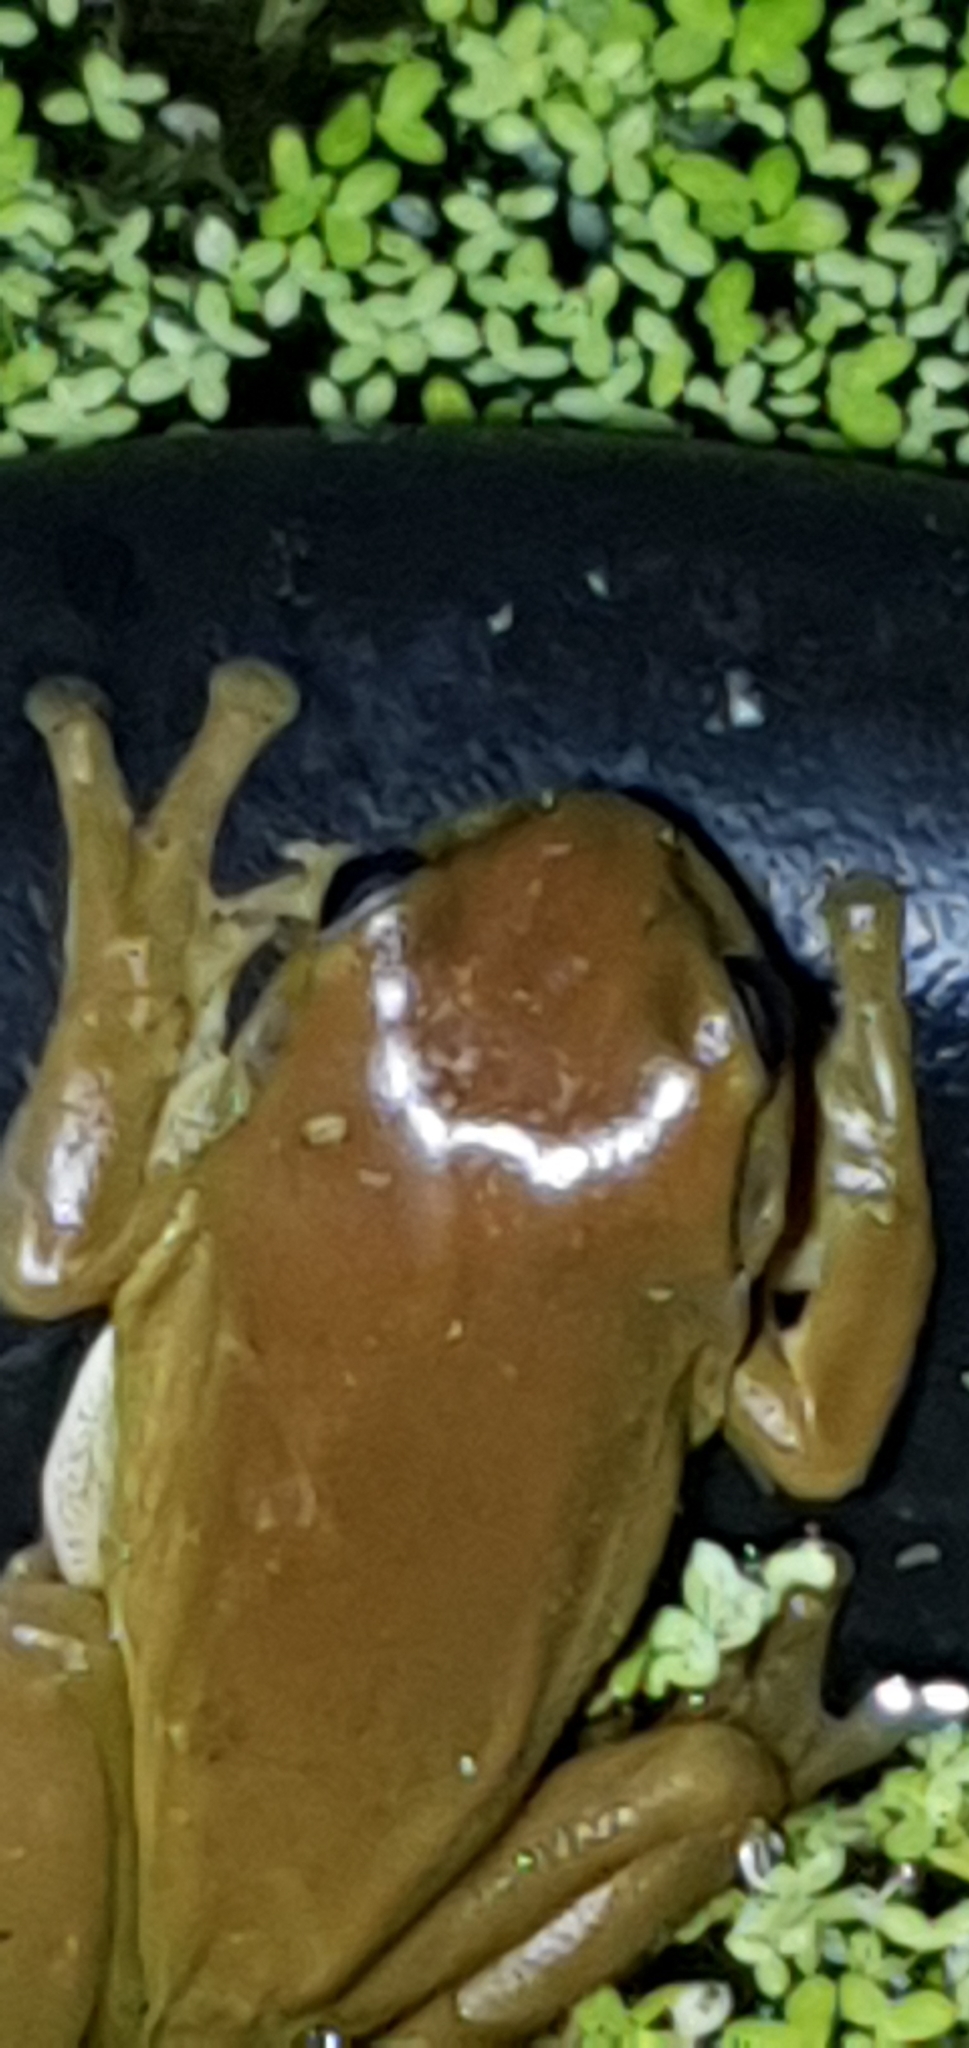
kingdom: Animalia
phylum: Chordata
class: Amphibia
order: Anura
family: Pelodryadidae
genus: Ranoidea
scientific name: Ranoidea caerulea
